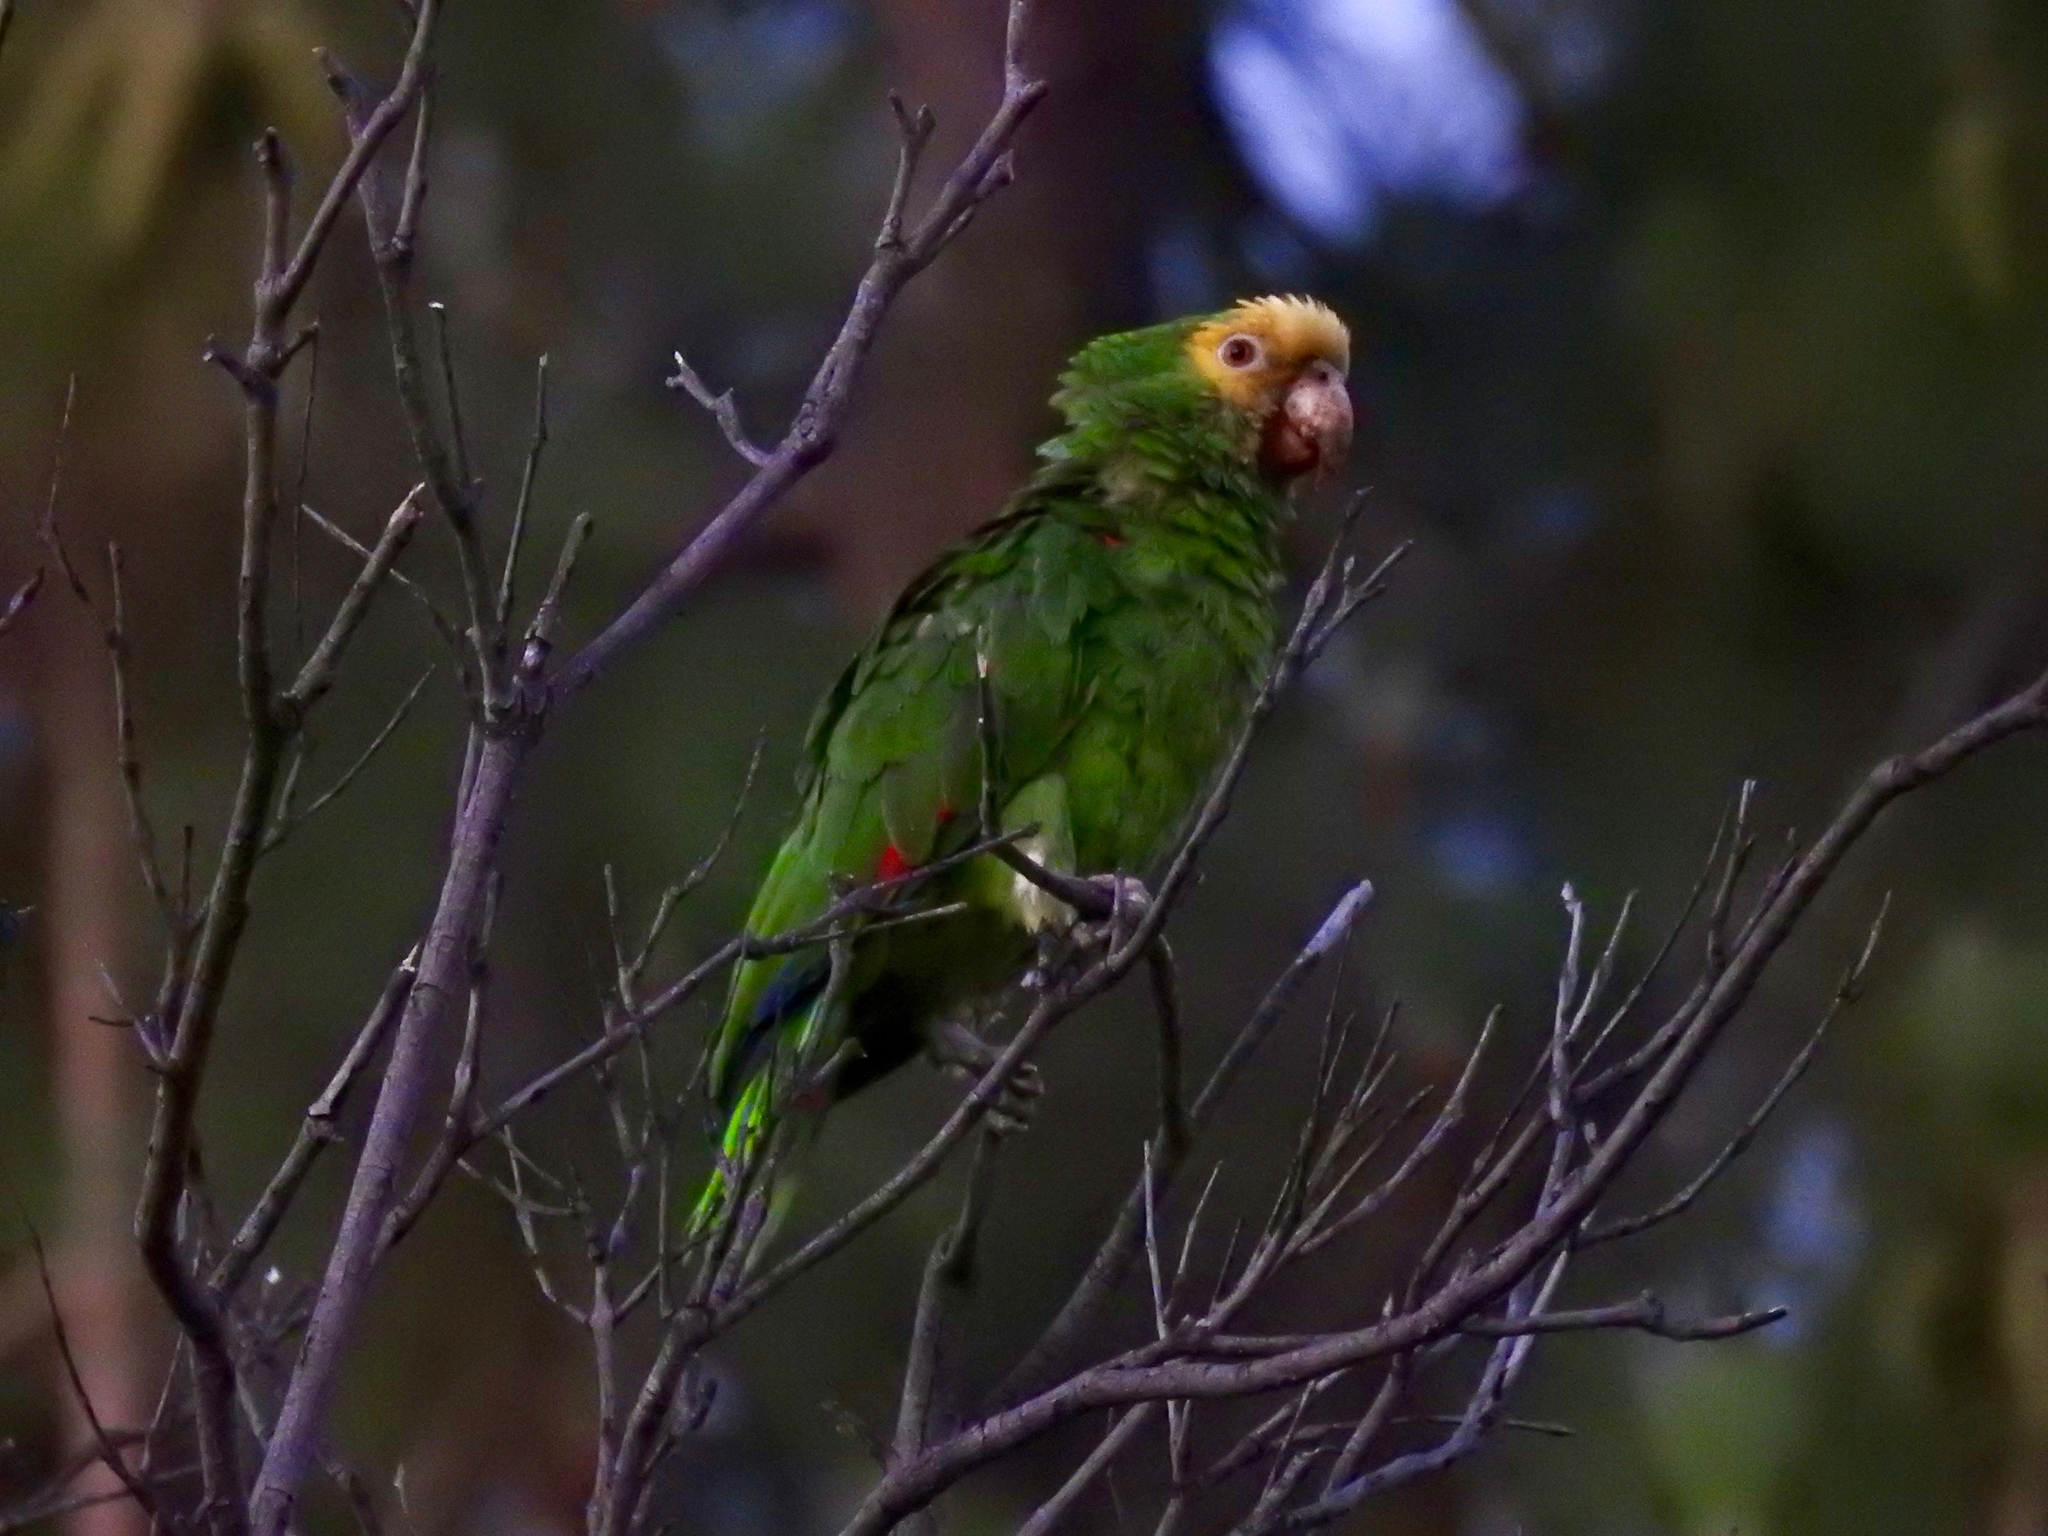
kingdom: Animalia
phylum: Chordata
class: Aves
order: Psittaciformes
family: Psittacidae
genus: Amazona
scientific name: Amazona oratrix
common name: Yellow-headed amazon
